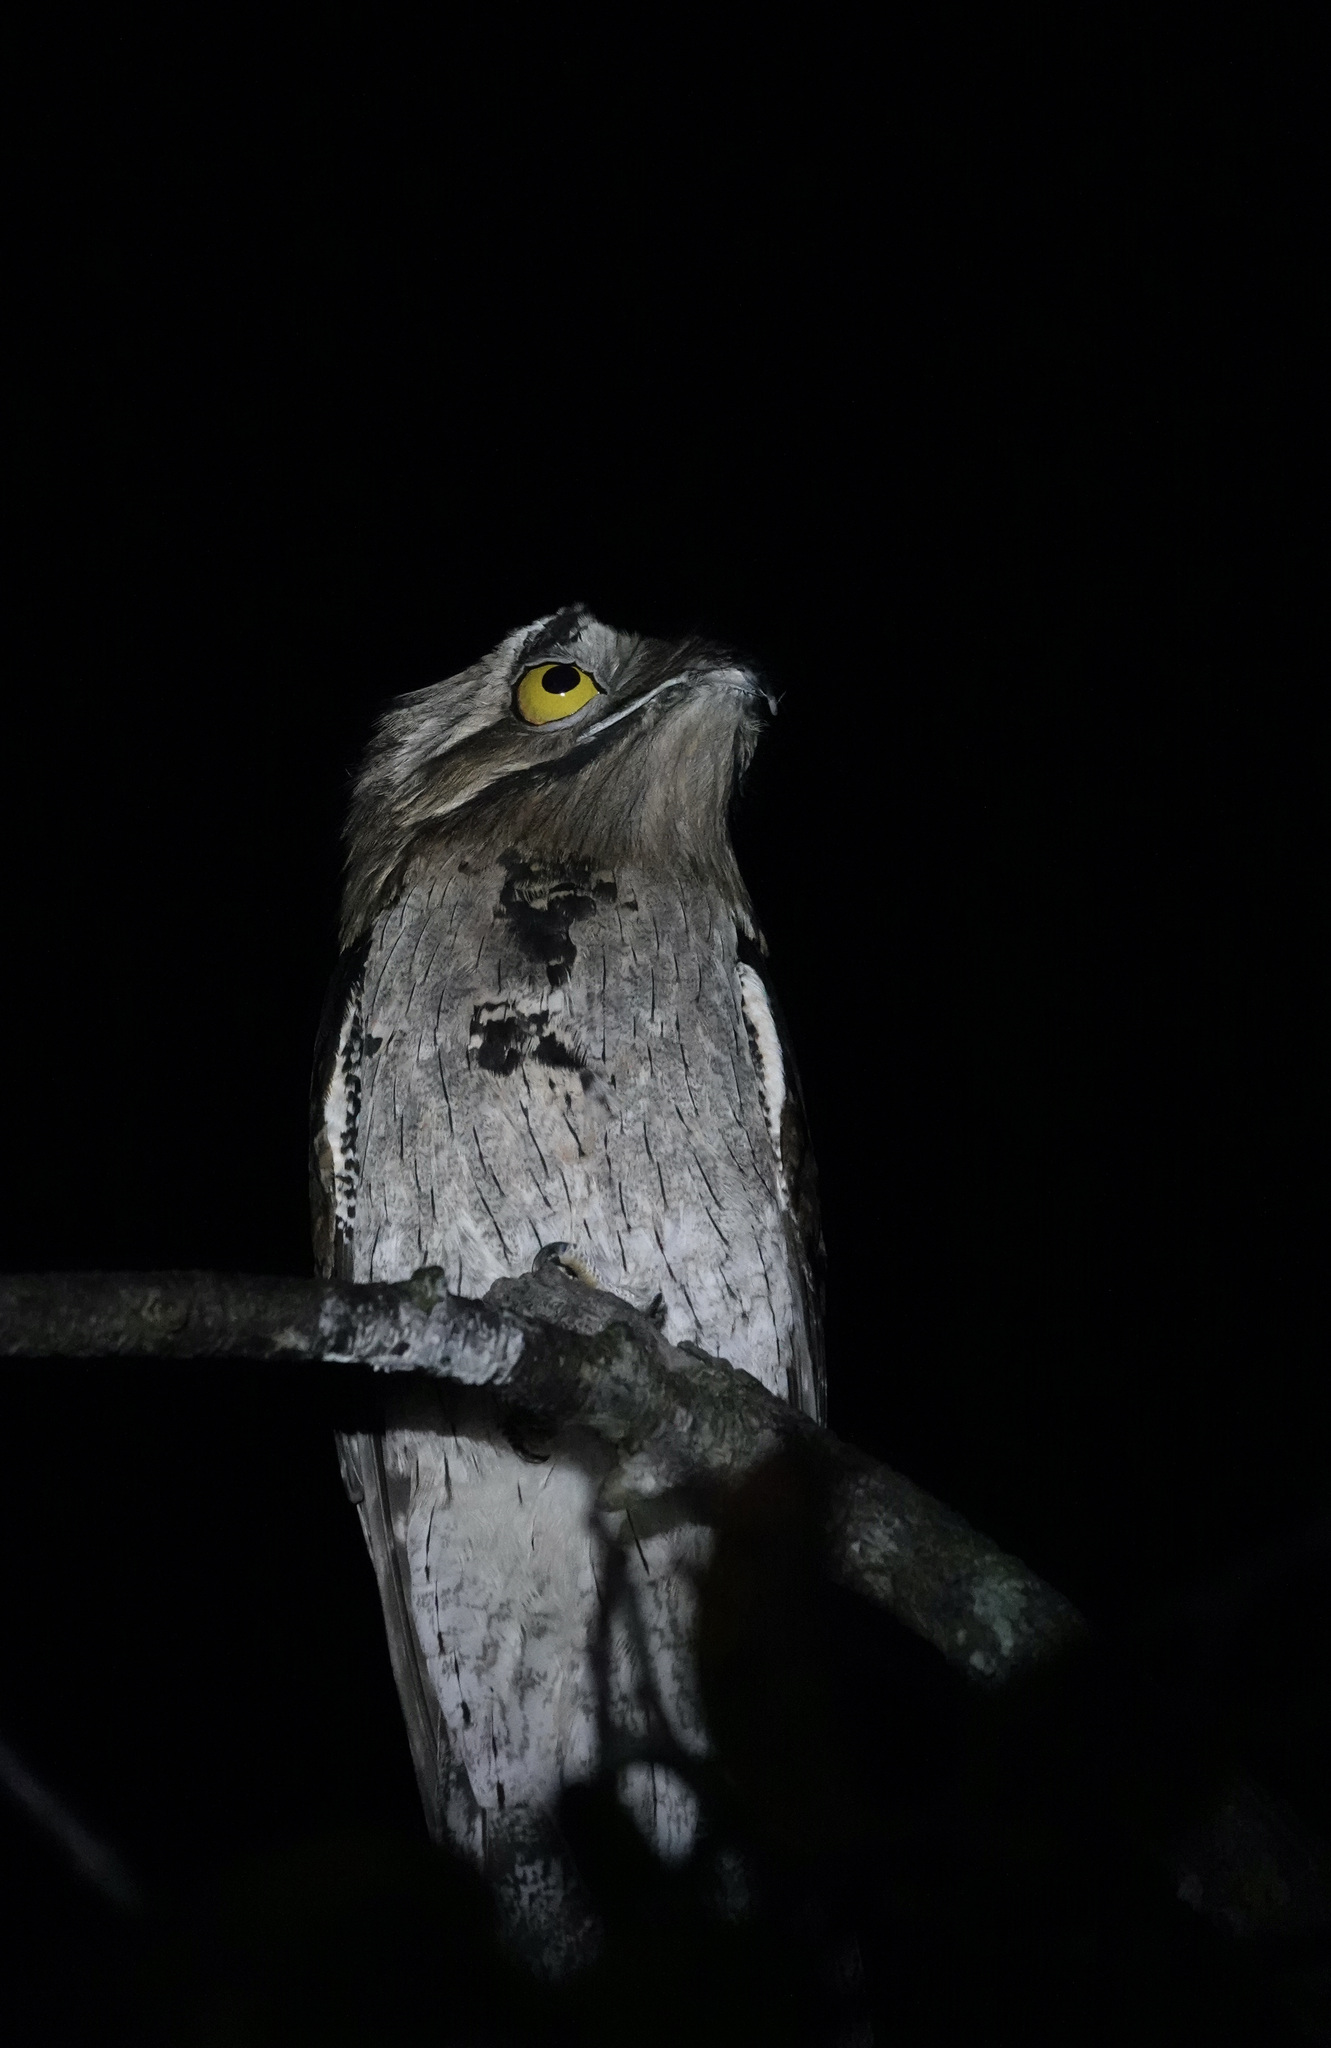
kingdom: Animalia
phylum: Chordata
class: Aves
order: Nyctibiiformes
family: Nyctibiidae
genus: Nyctibius
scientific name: Nyctibius jamaicensis
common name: Northern potoo
